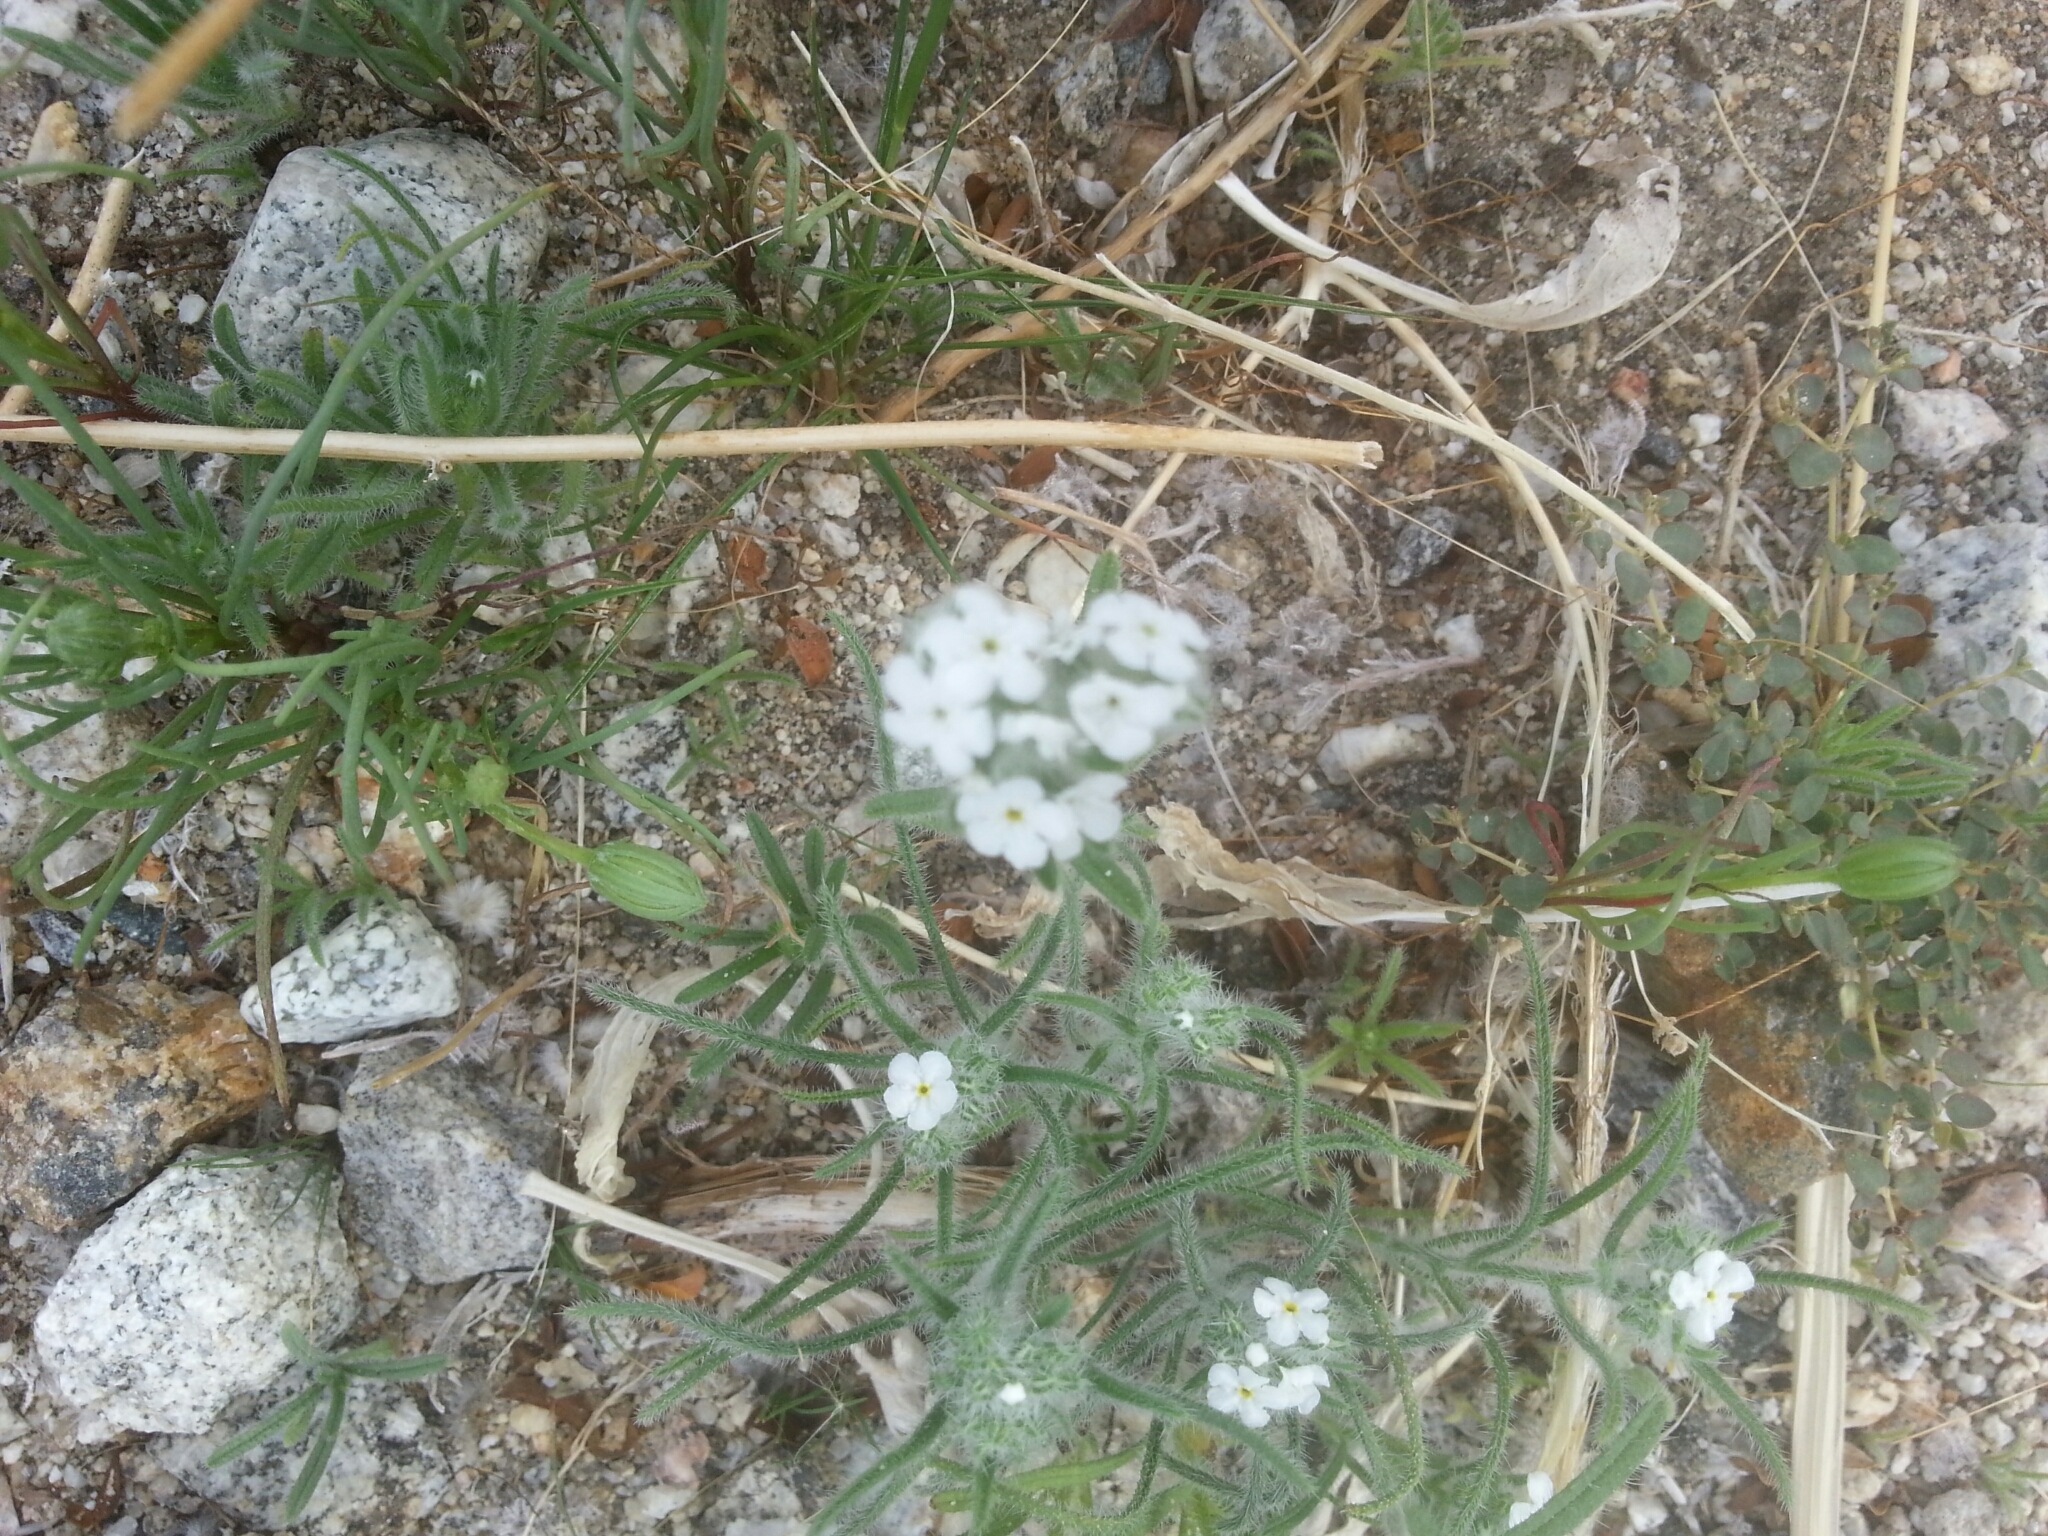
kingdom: Plantae
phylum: Tracheophyta
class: Magnoliopsida
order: Boraginales
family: Boraginaceae
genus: Johnstonella
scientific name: Johnstonella angustifolia
